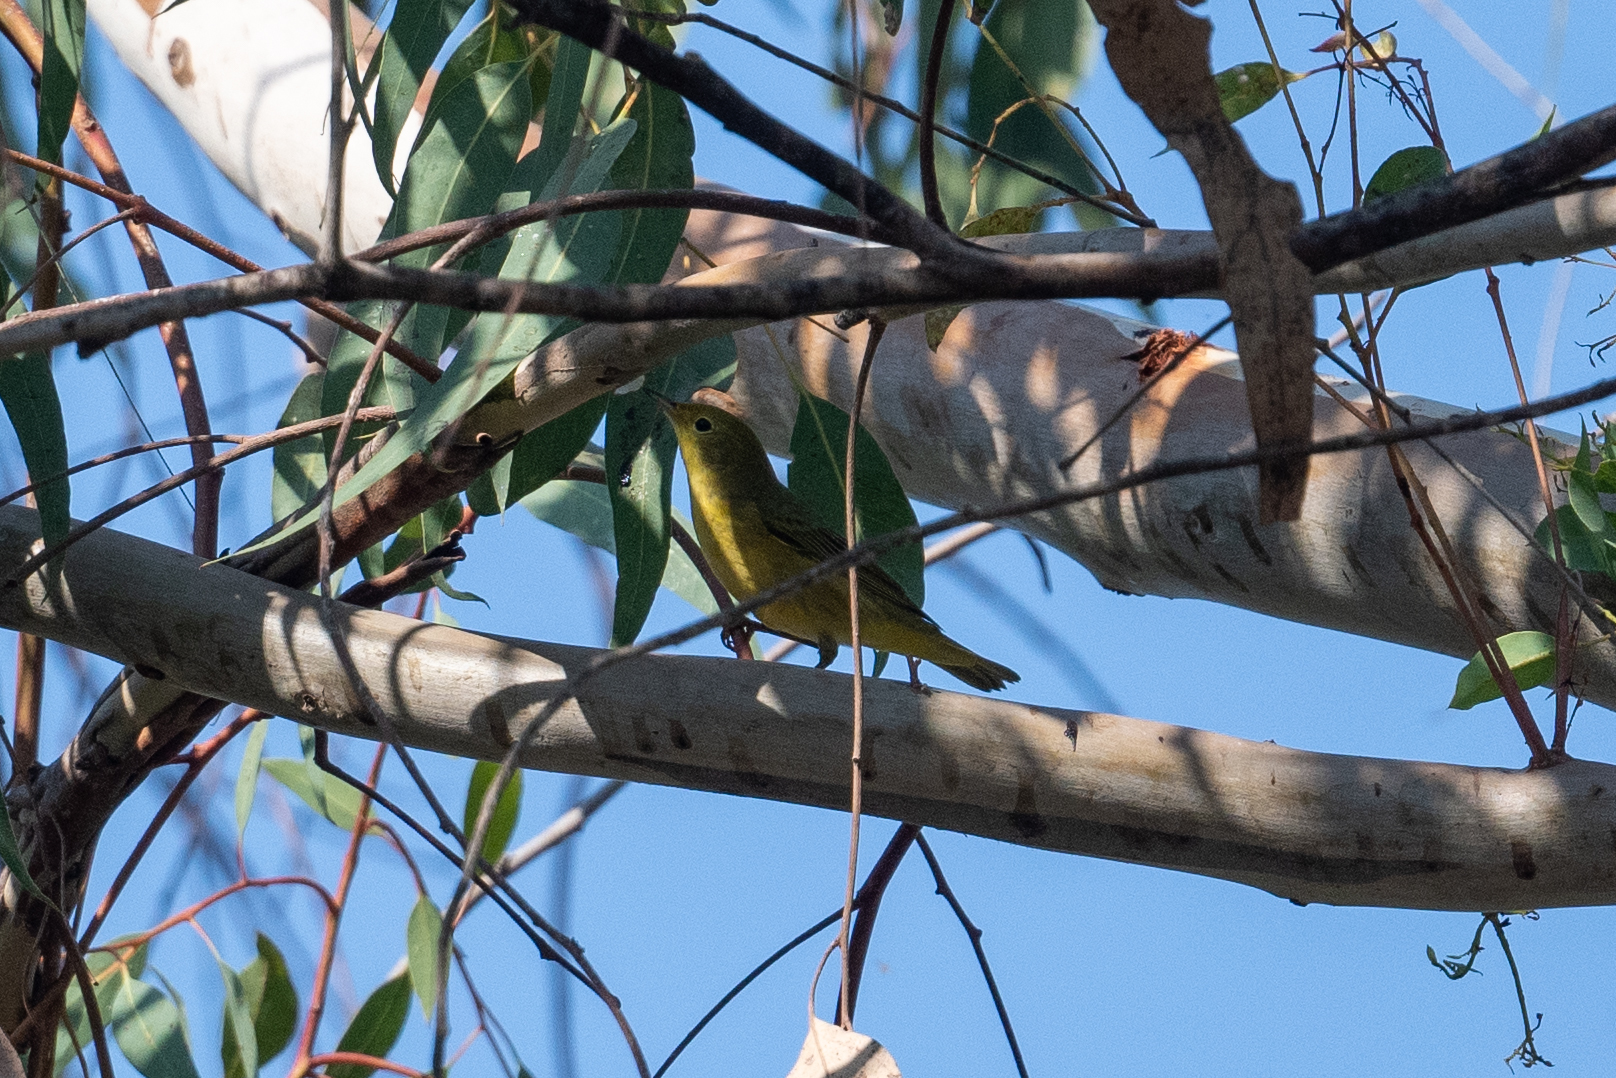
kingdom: Animalia
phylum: Chordata
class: Aves
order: Passeriformes
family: Parulidae
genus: Setophaga
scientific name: Setophaga petechia
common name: Yellow warbler
